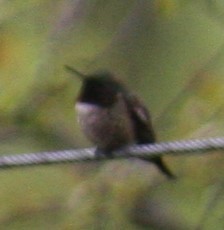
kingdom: Animalia
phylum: Chordata
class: Aves
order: Apodiformes
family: Trochilidae
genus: Archilochus
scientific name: Archilochus colubris
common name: Ruby-throated hummingbird
